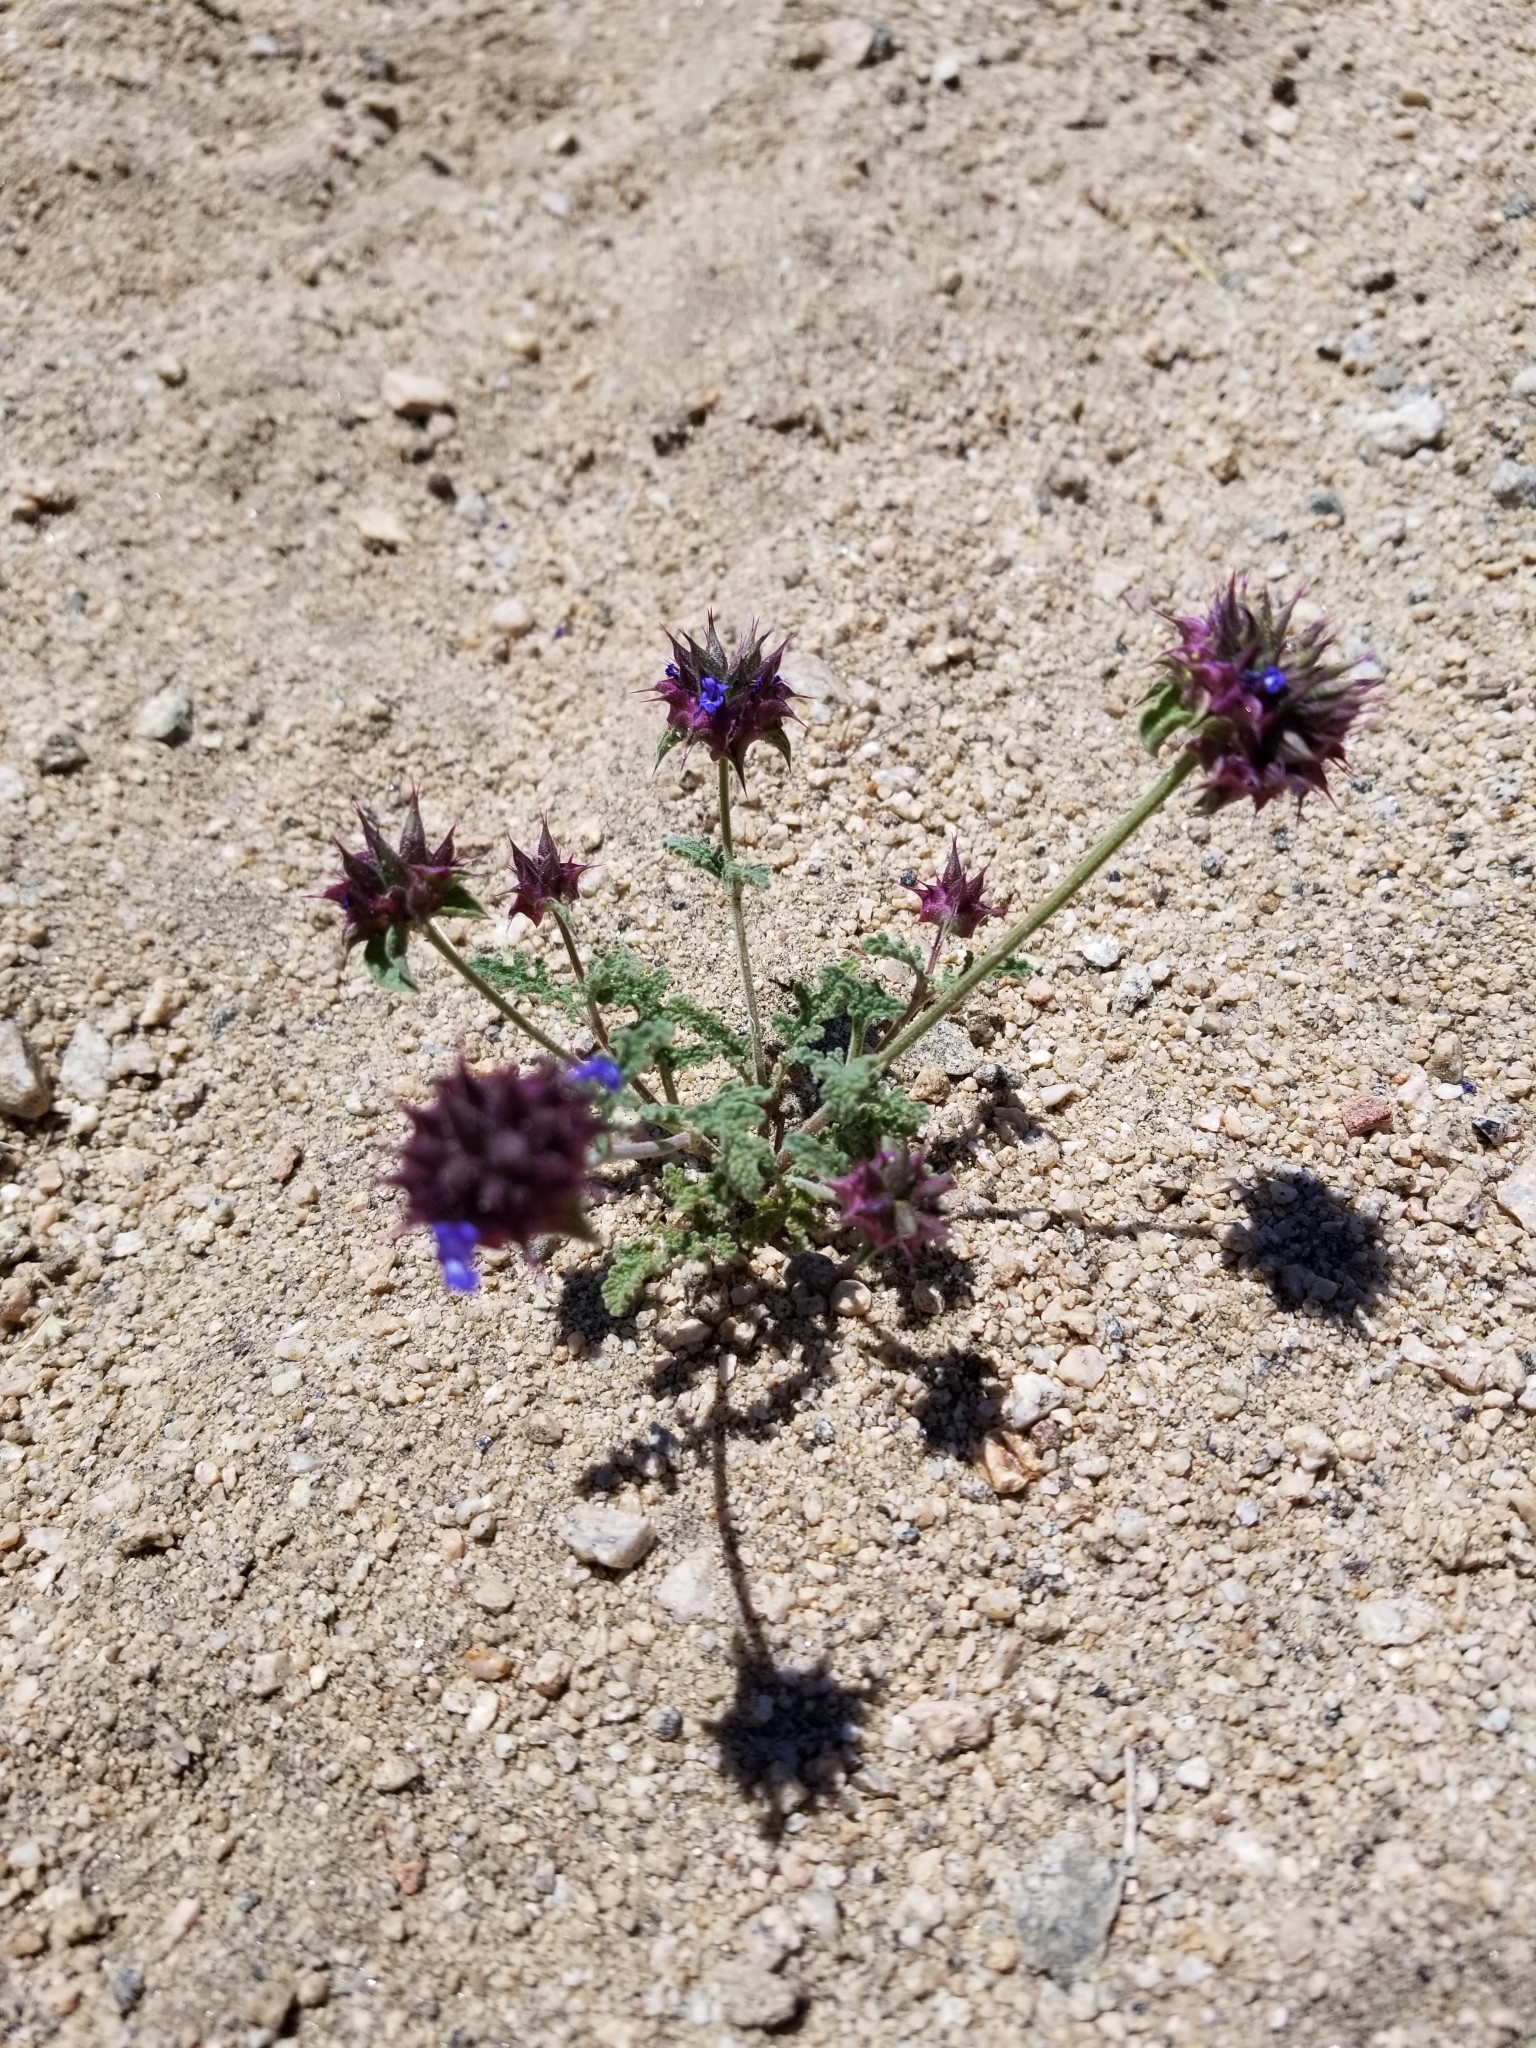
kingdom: Plantae
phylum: Tracheophyta
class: Magnoliopsida
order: Lamiales
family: Lamiaceae
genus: Salvia
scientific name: Salvia columbariae
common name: Chia
